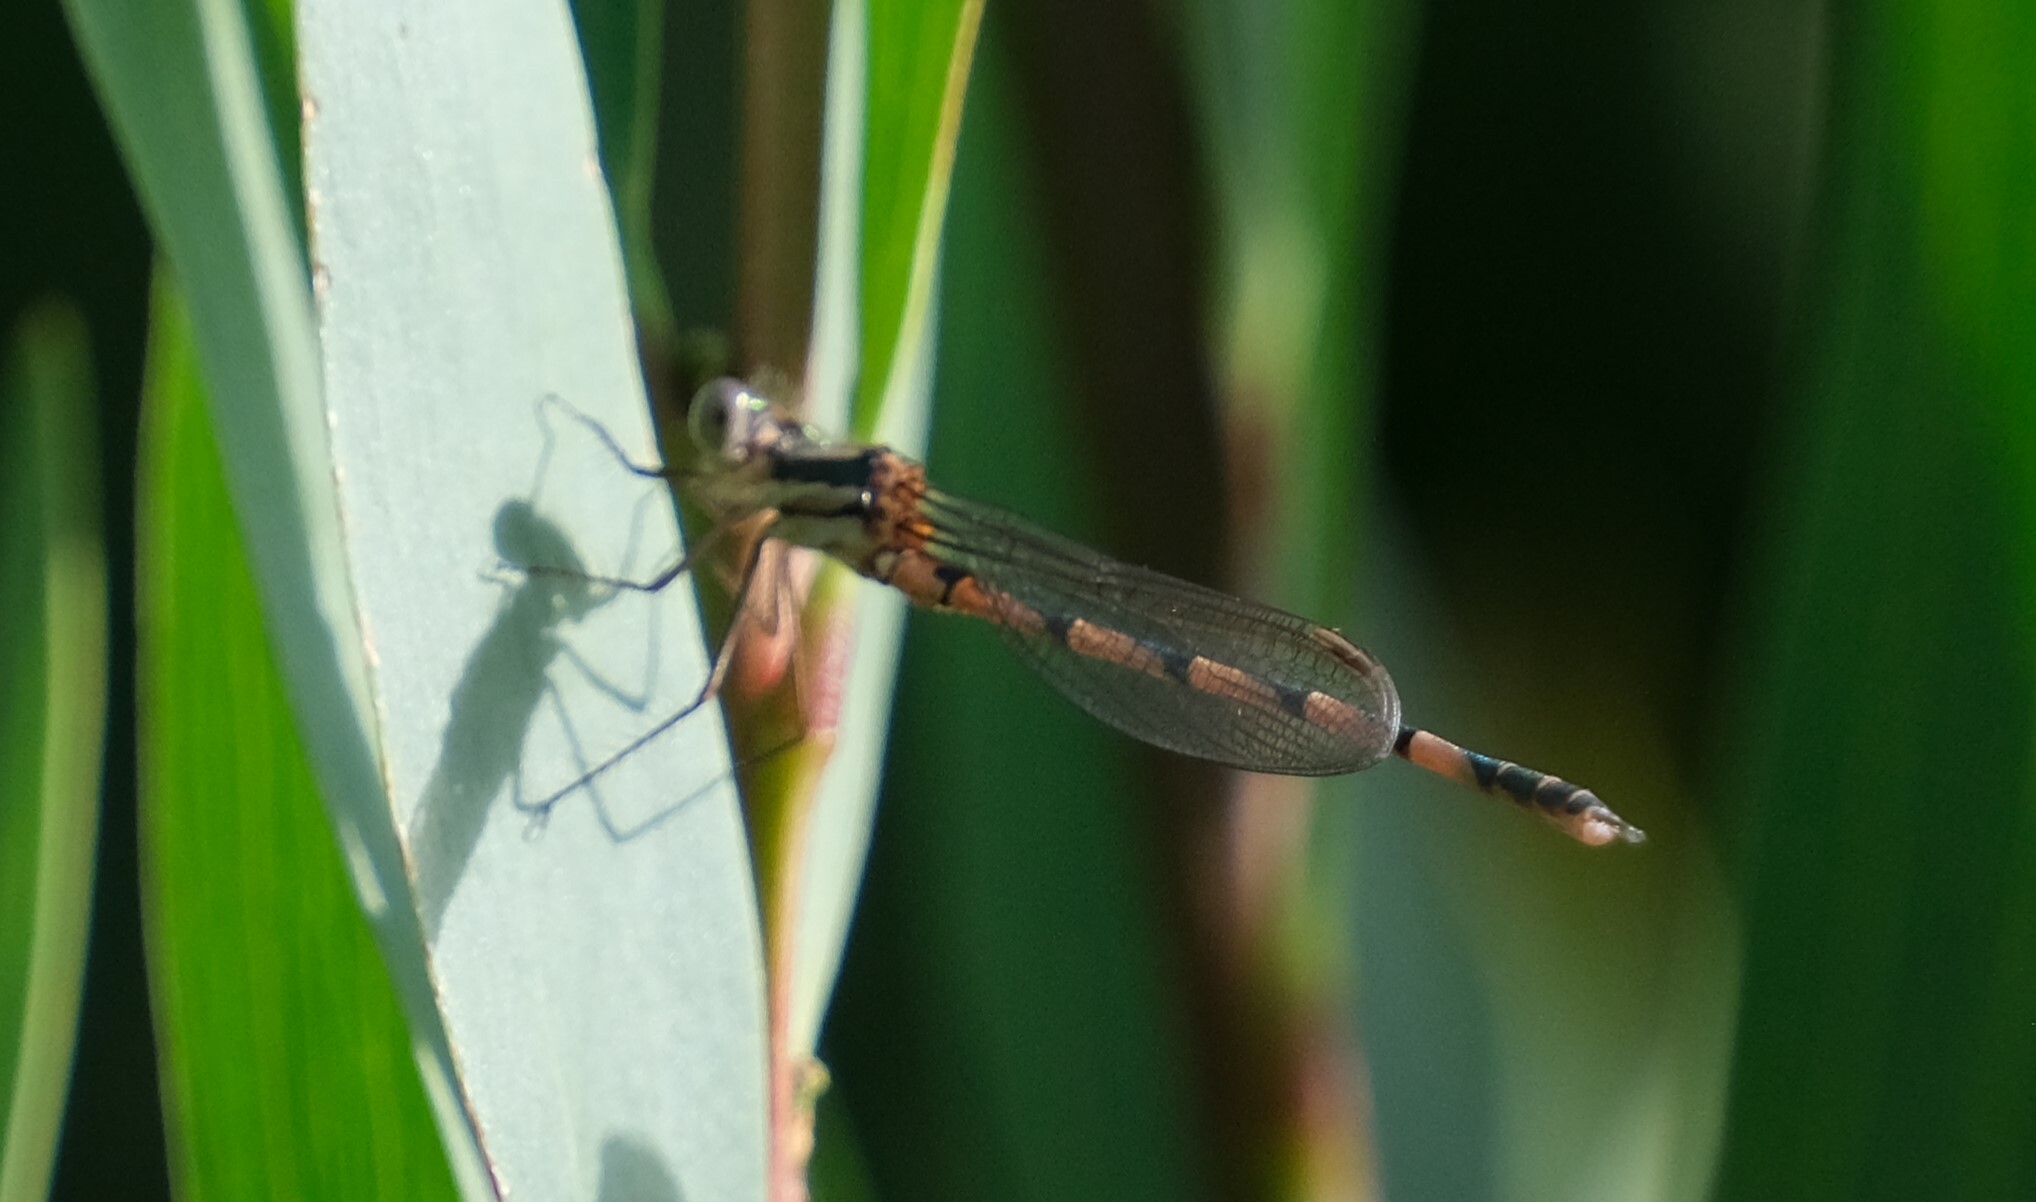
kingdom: Animalia
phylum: Arthropoda
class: Insecta
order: Odonata
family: Lestidae
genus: Austrolestes
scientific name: Austrolestes annulosus
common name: Blue ringtail
